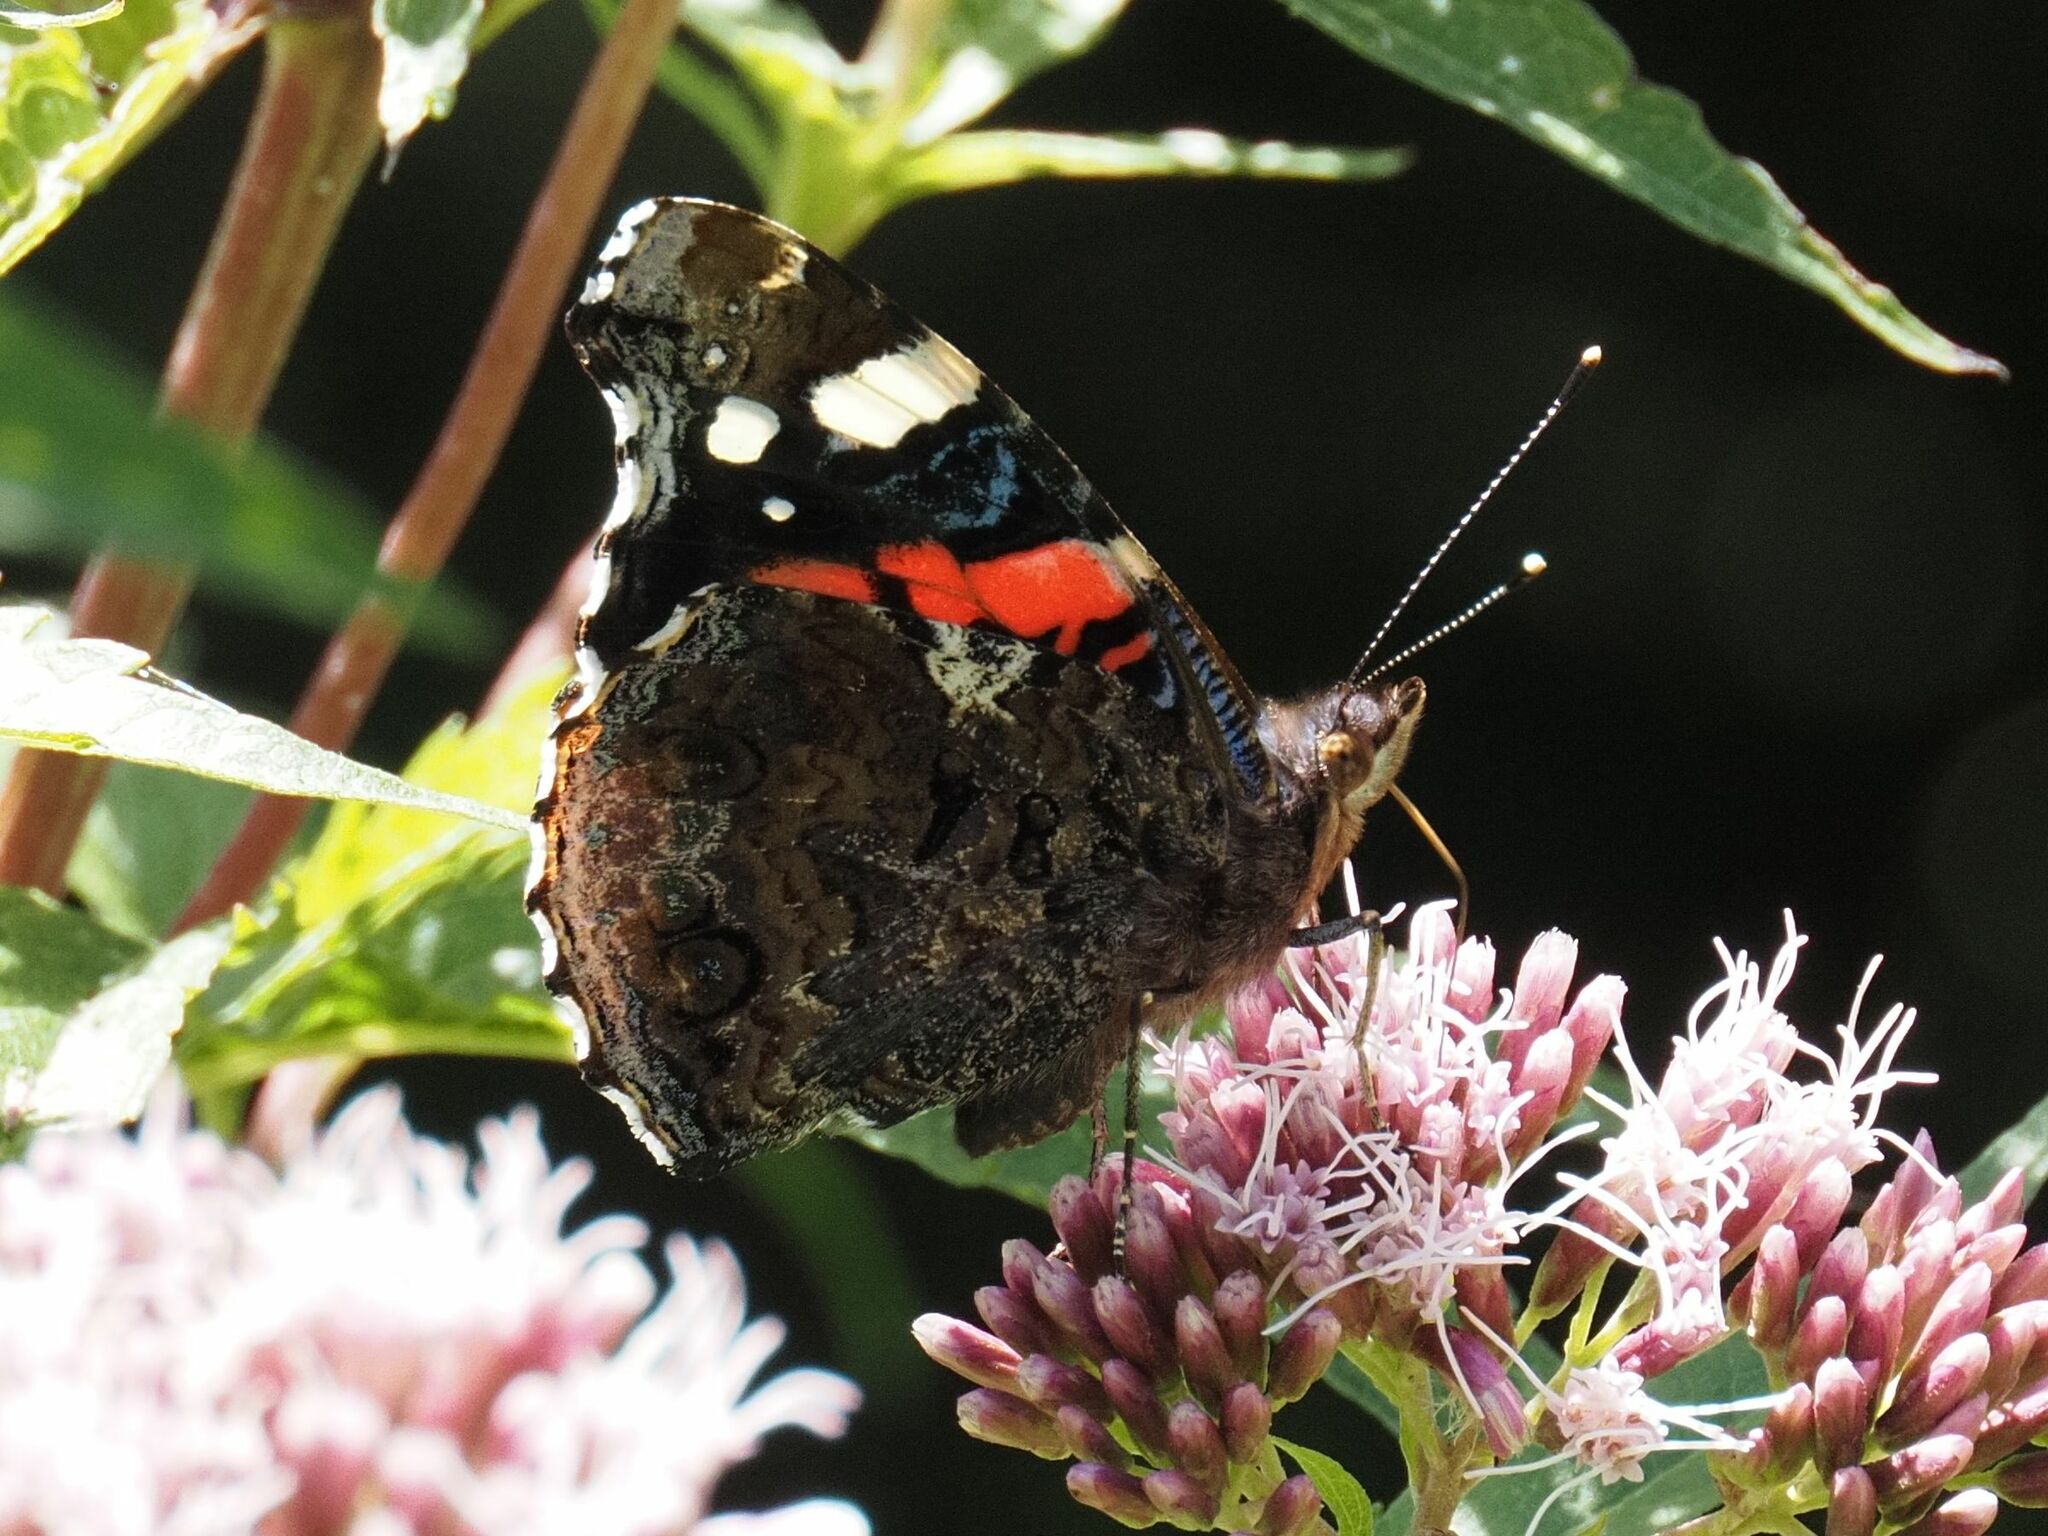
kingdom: Animalia
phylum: Arthropoda
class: Insecta
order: Lepidoptera
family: Nymphalidae
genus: Vanessa
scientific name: Vanessa atalanta
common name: Red admiral
